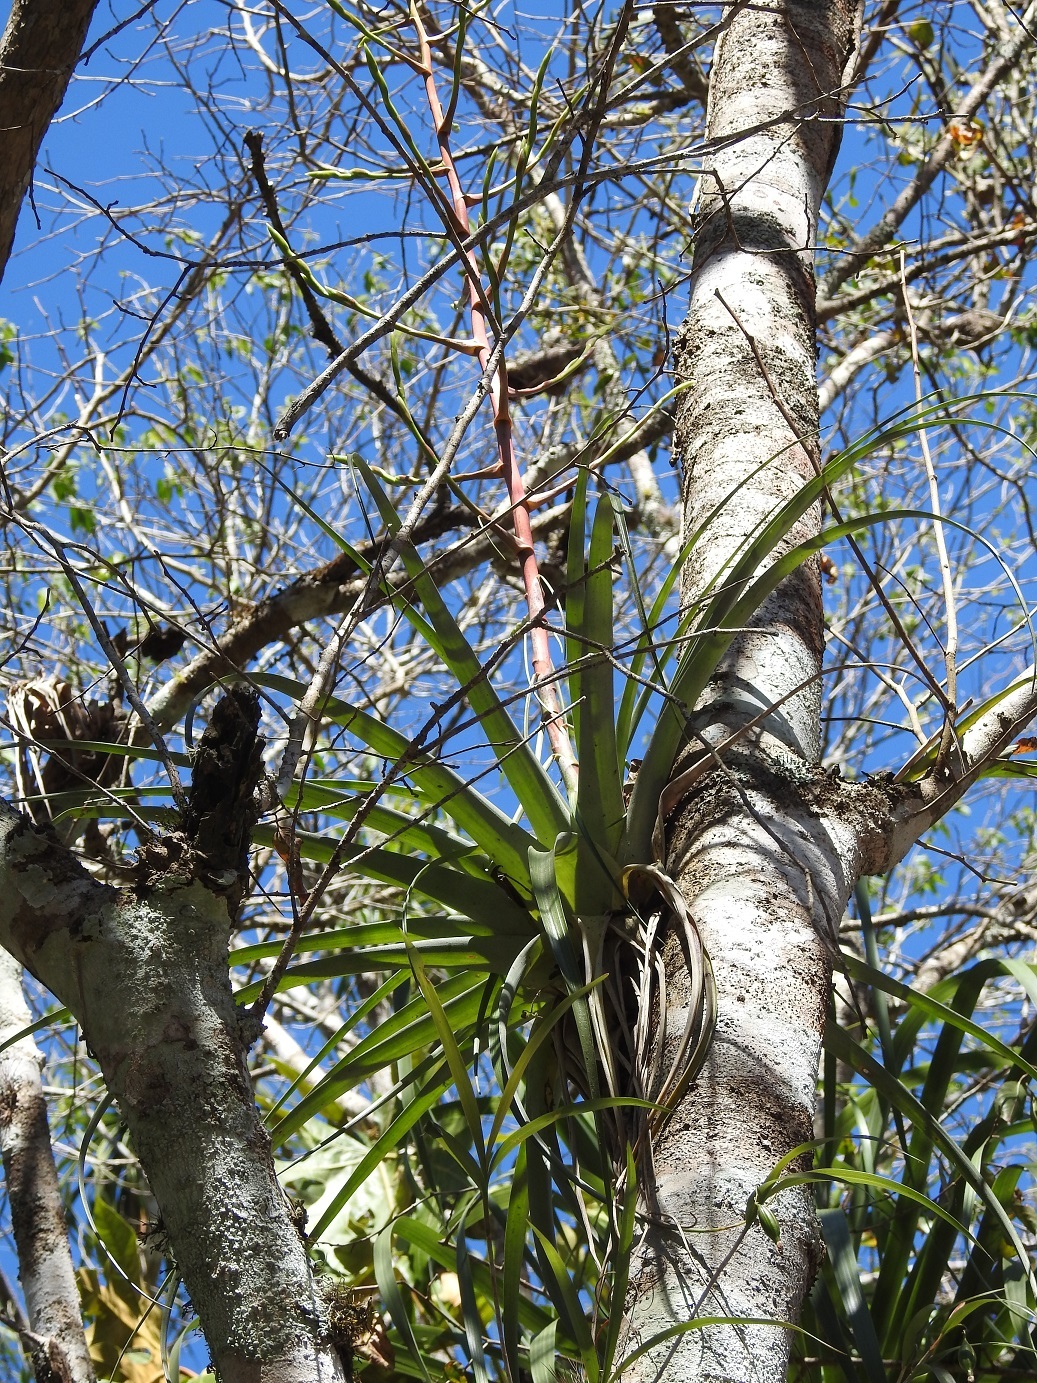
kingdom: Plantae
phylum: Tracheophyta
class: Liliopsida
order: Poales
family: Bromeliaceae
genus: Tillandsia
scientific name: Tillandsia makoyana
